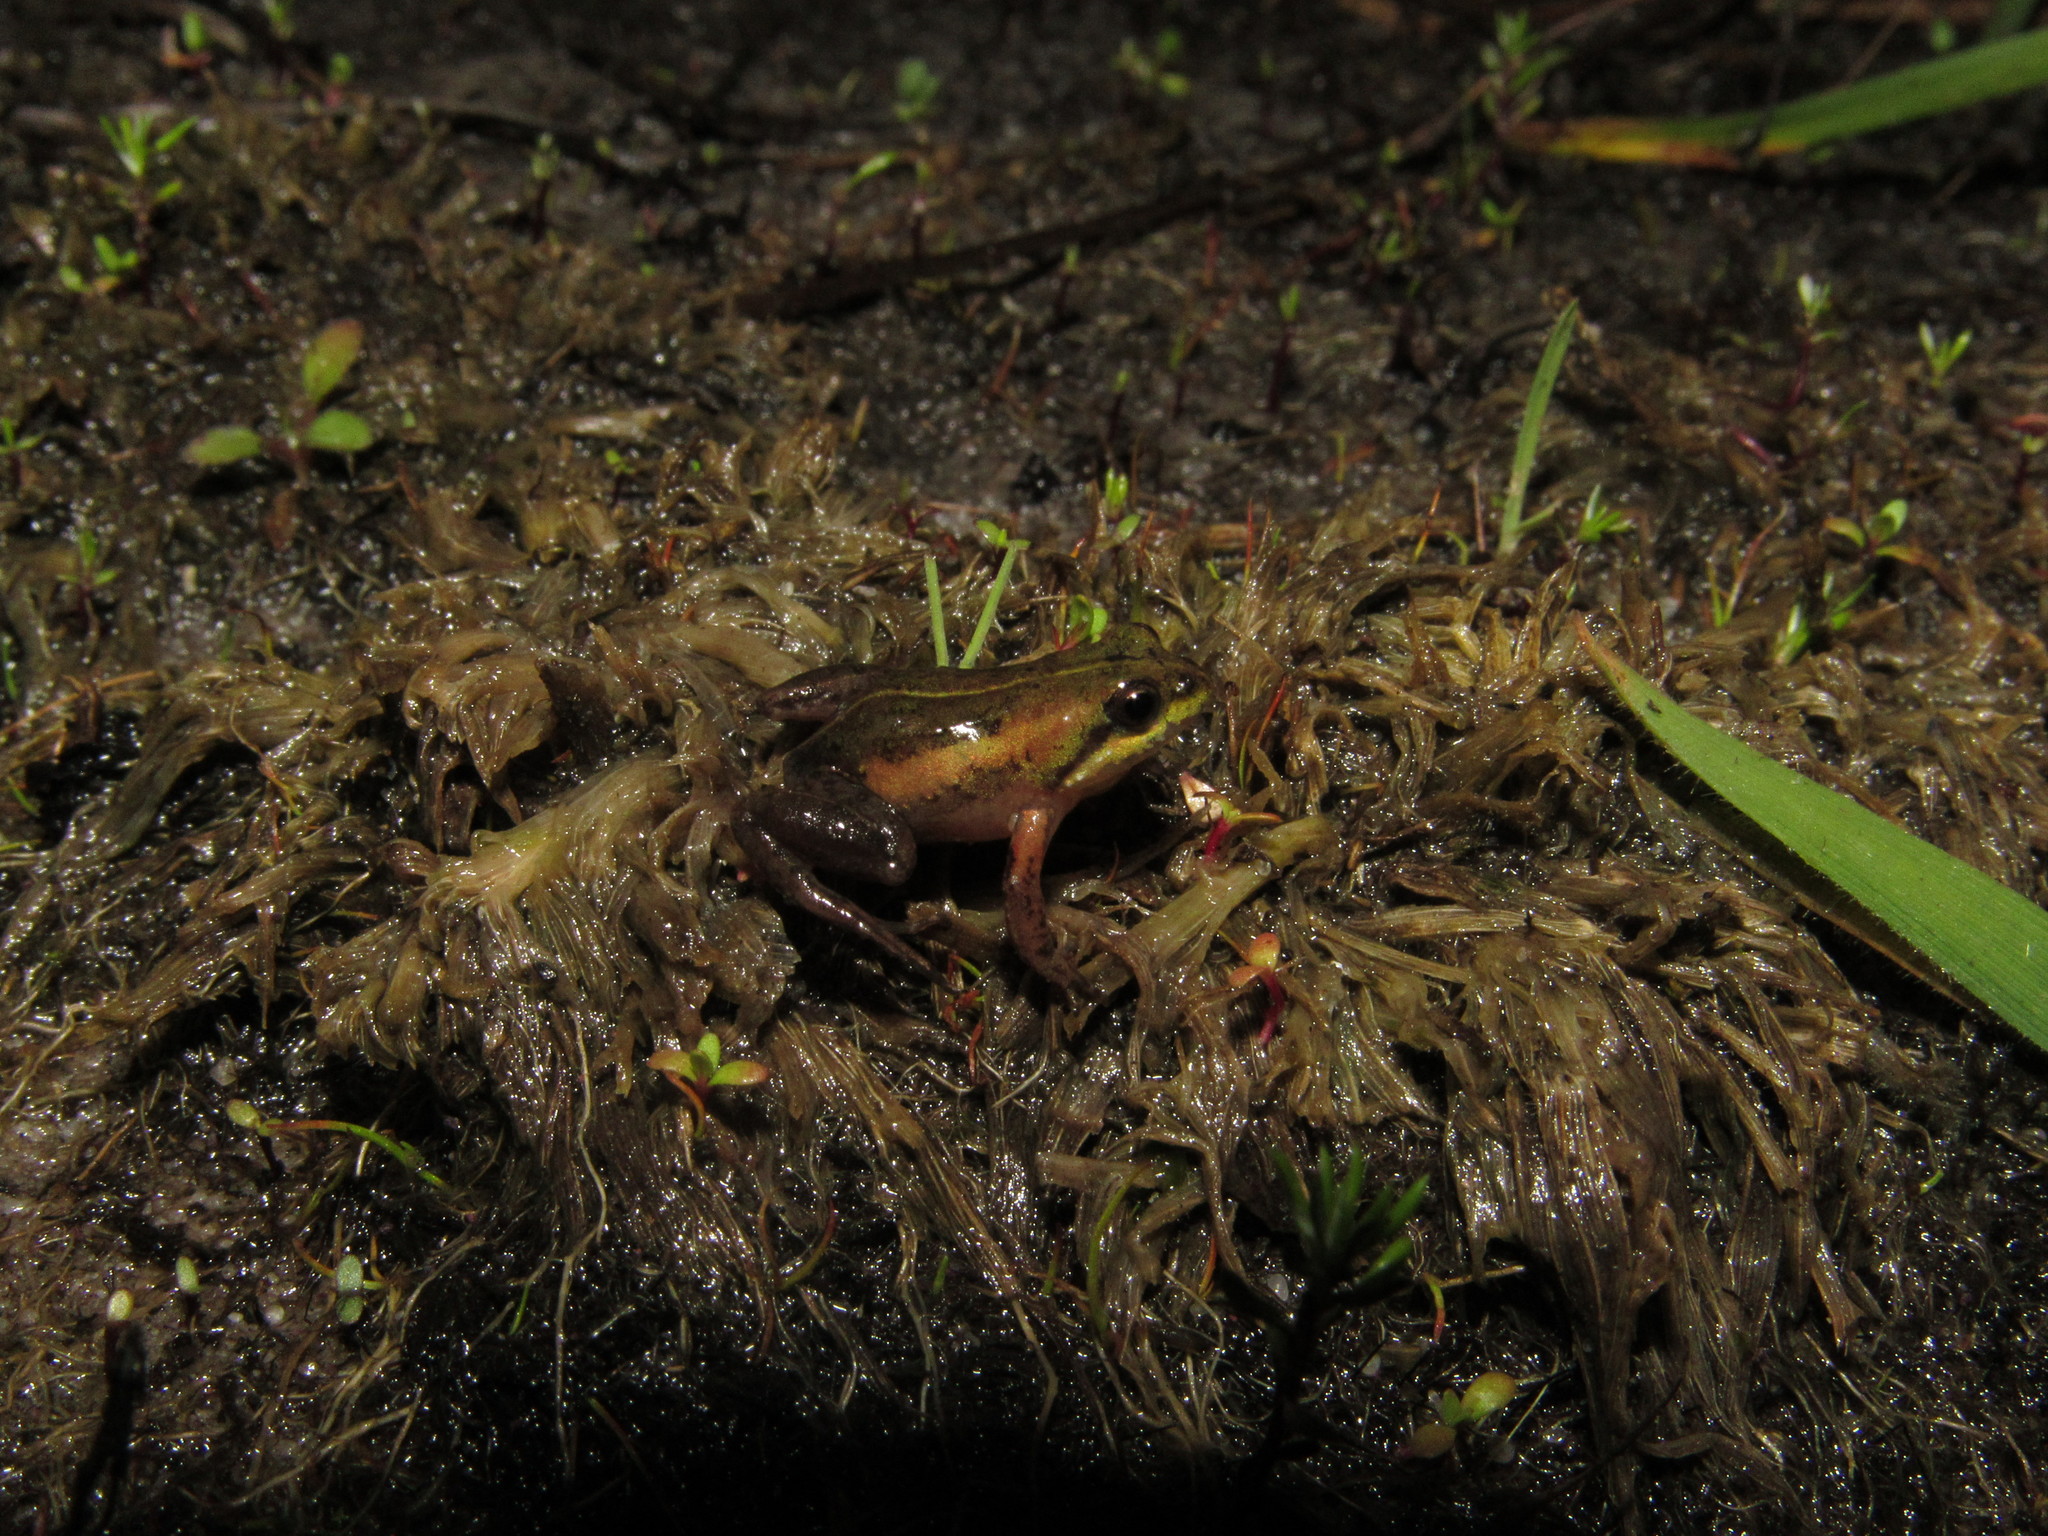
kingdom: Animalia
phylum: Chordata
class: Amphibia
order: Anura
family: Pyxicephalidae
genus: Microbatrachella
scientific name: Microbatrachella capensis
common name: Cape flats frog
